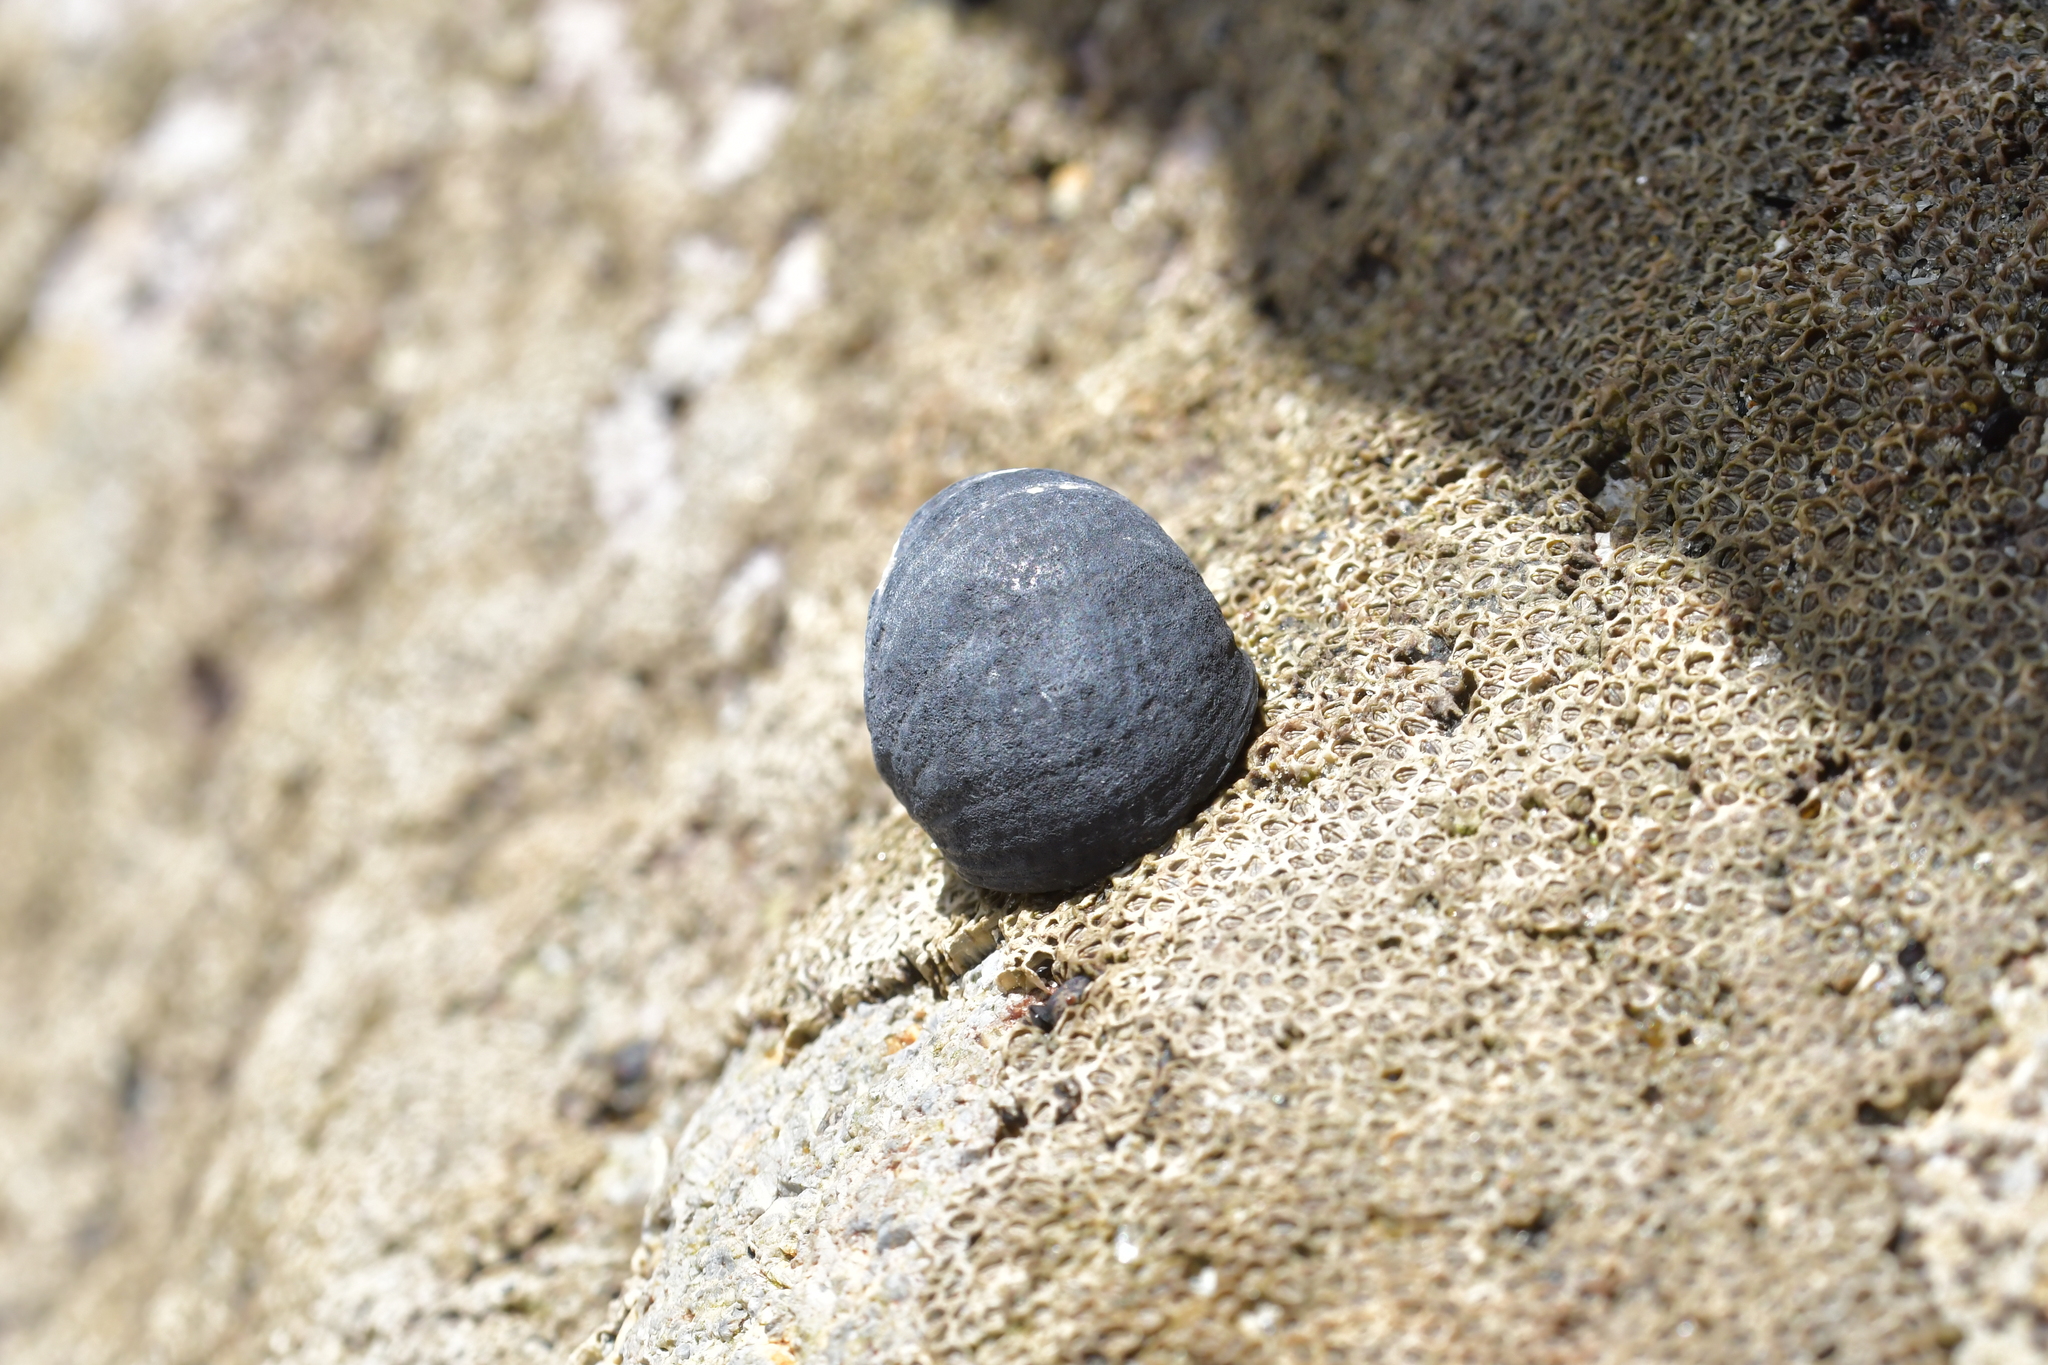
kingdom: Animalia
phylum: Mollusca
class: Gastropoda
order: Cycloneritida
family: Neritidae
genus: Nerita
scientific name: Nerita melanotragus
